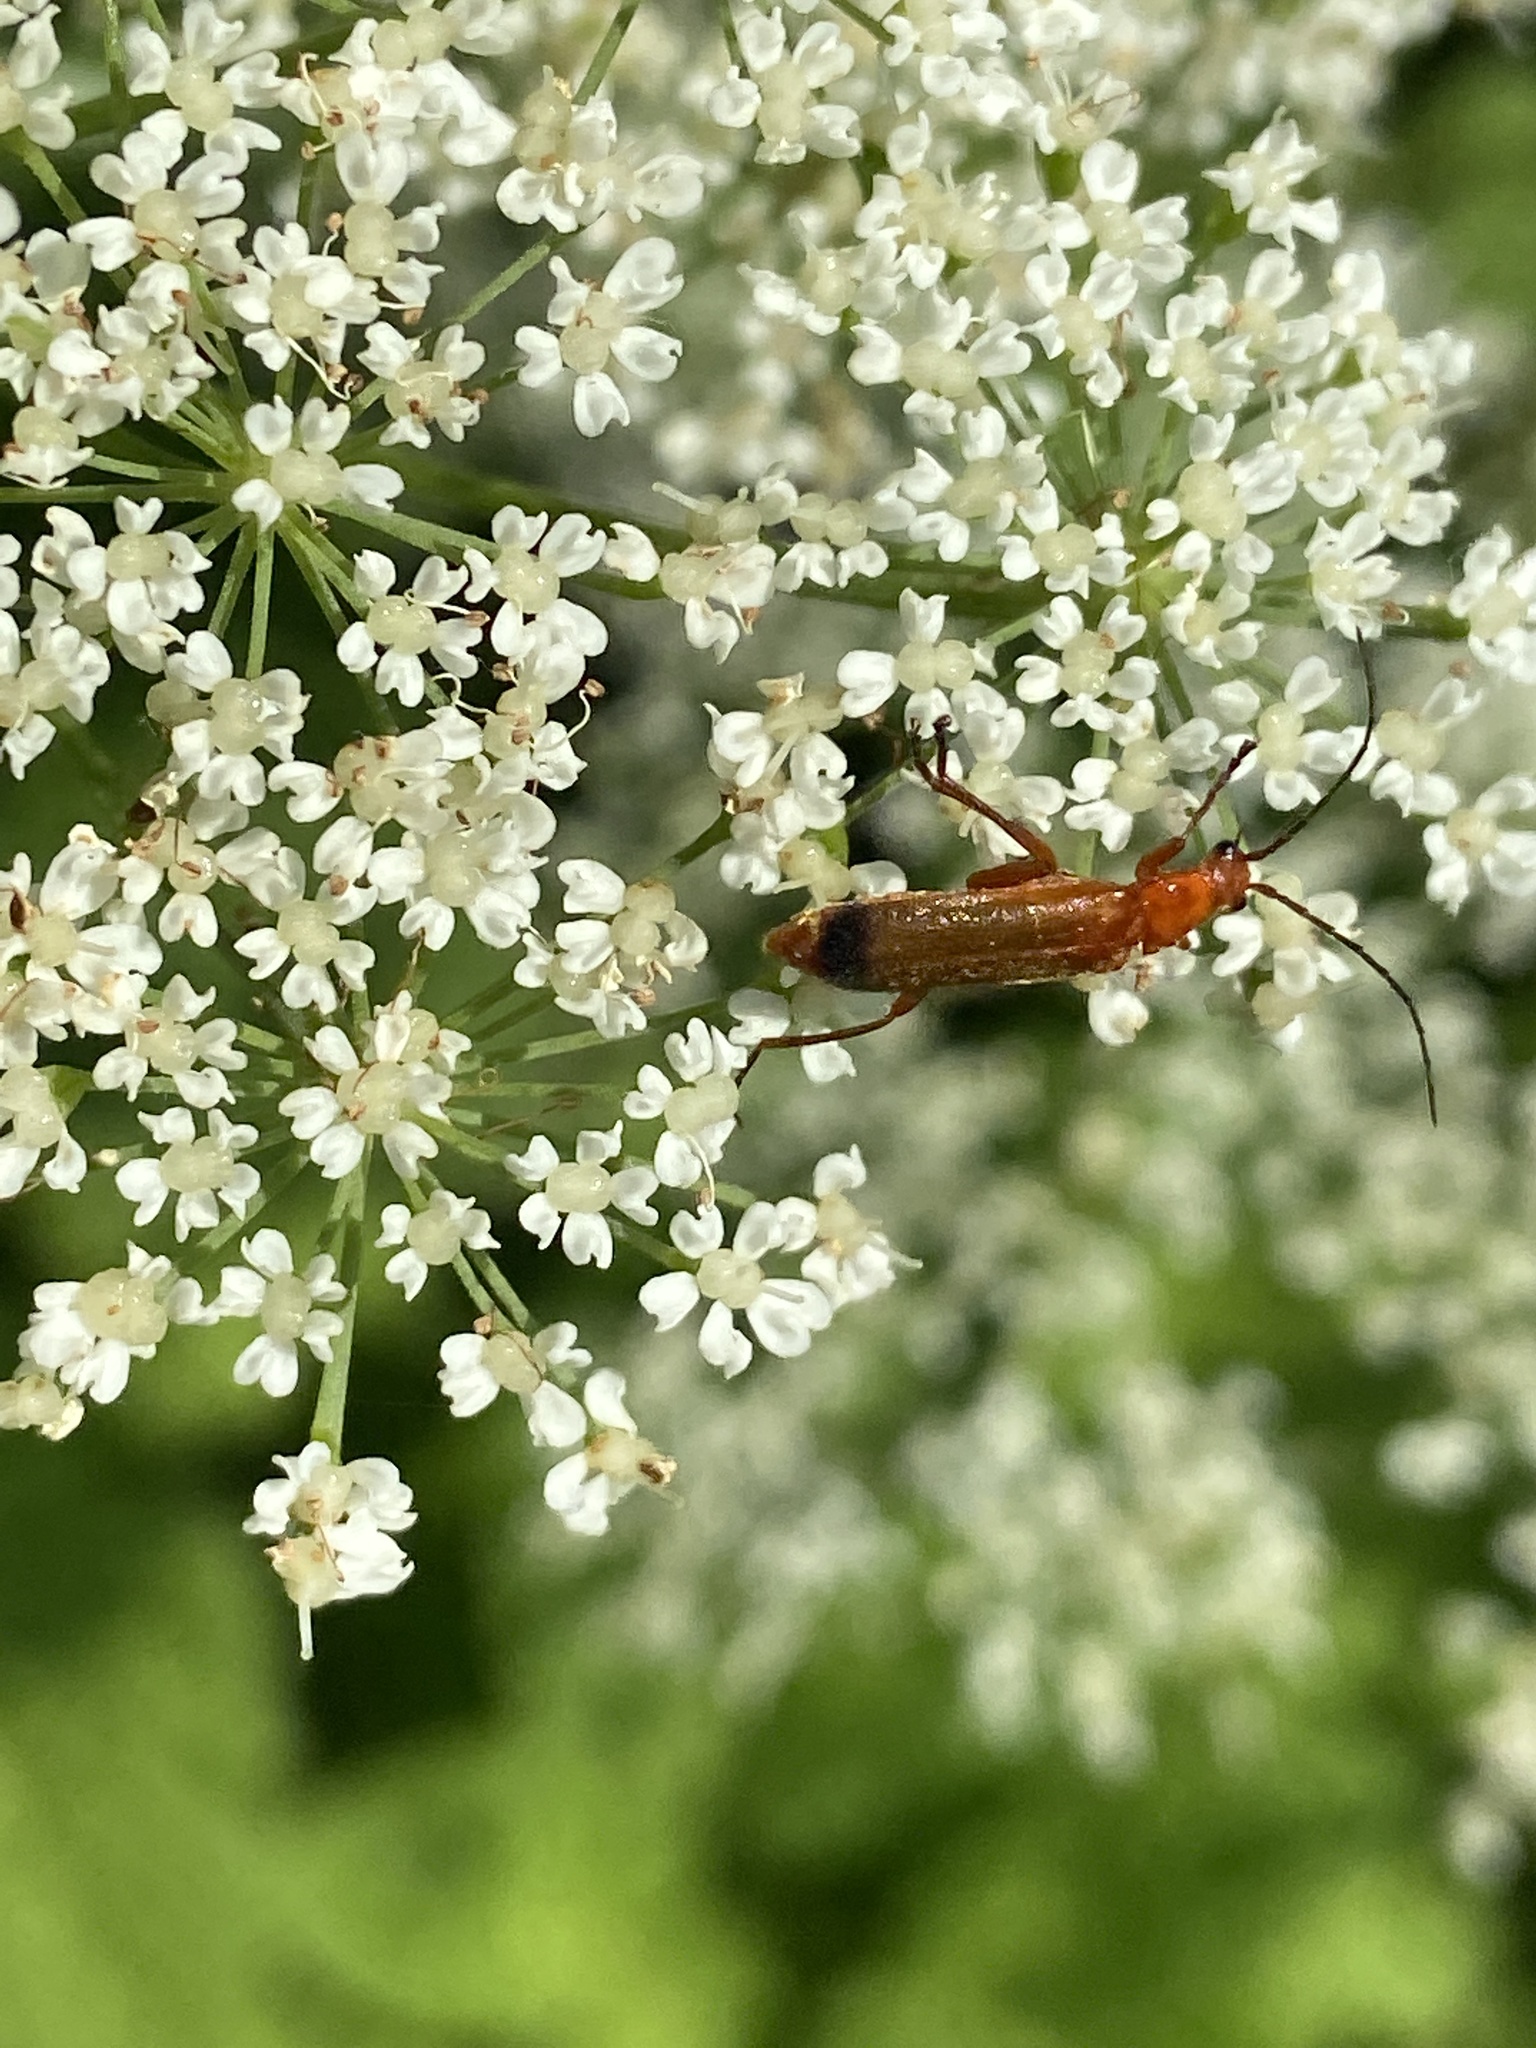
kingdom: Animalia
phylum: Arthropoda
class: Insecta
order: Coleoptera
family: Cantharidae
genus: Rhagonycha
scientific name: Rhagonycha fulva
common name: Common red soldier beetle
